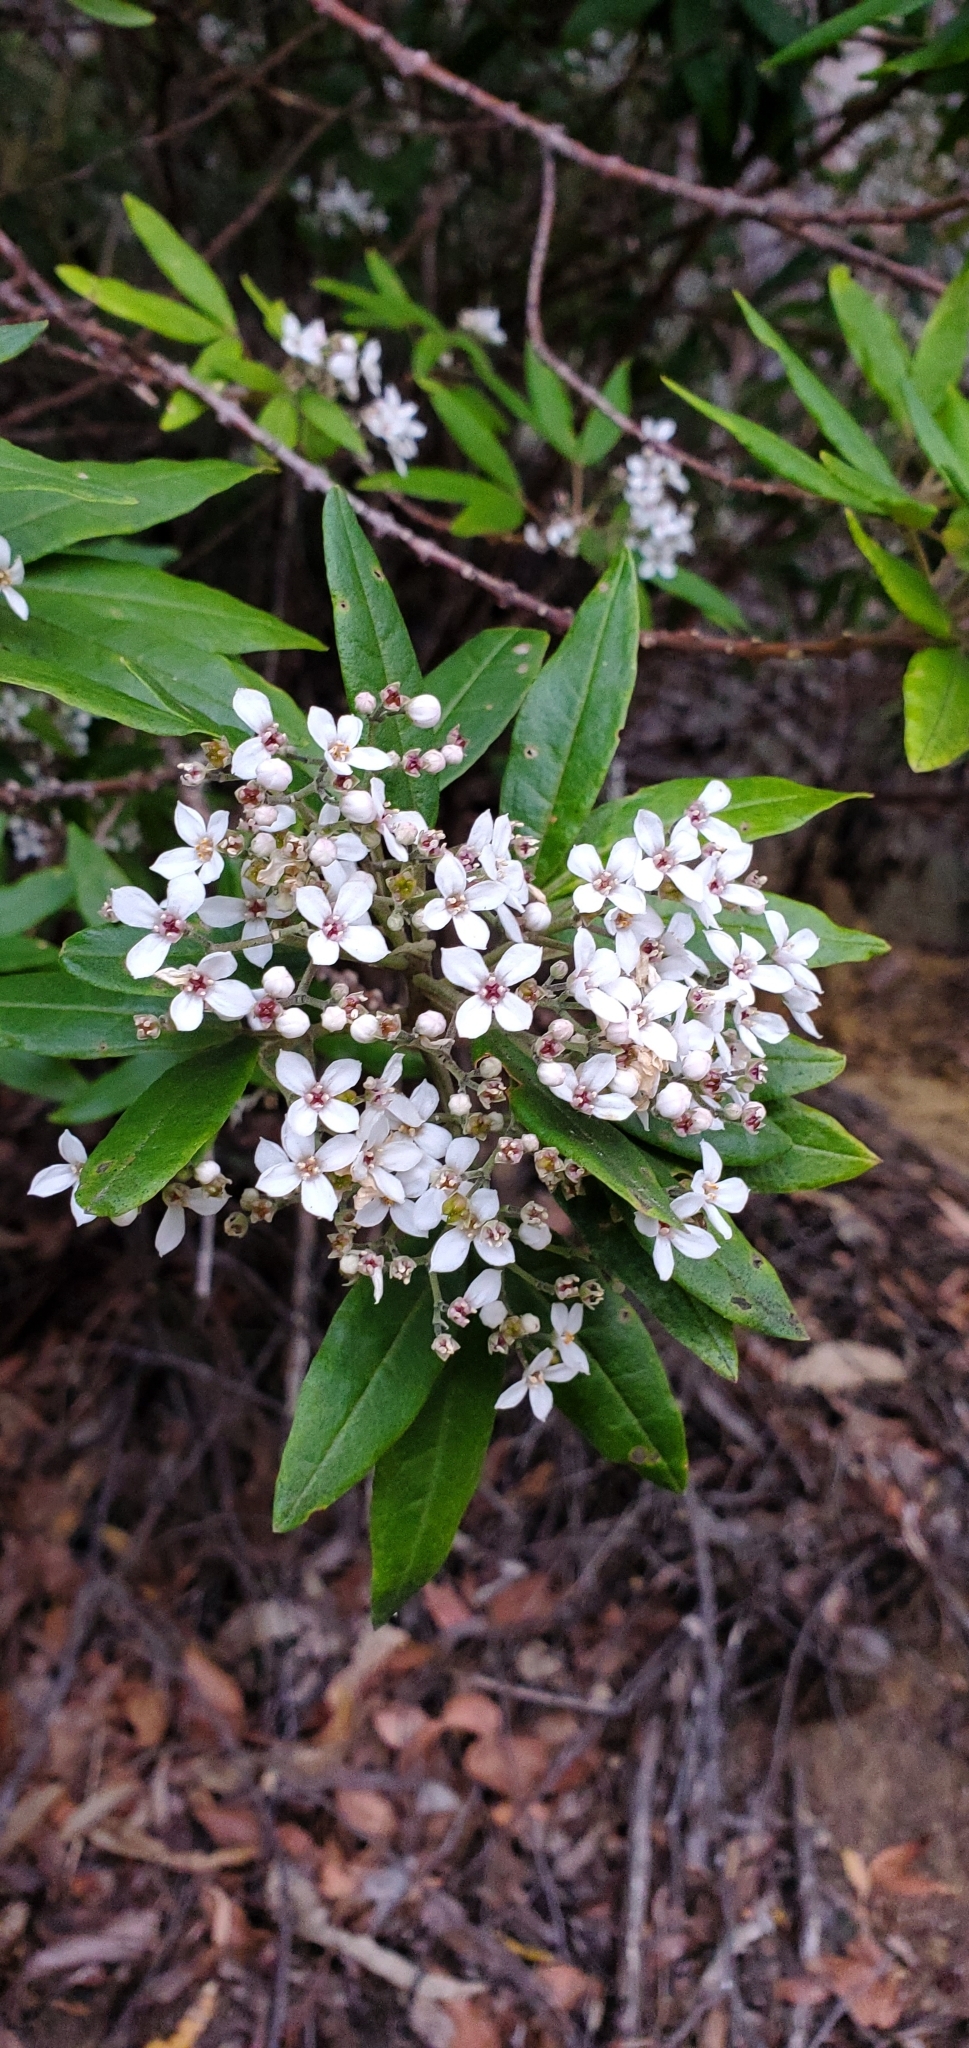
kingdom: Plantae
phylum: Tracheophyta
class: Magnoliopsida
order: Sapindales
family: Rutaceae
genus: Zieria
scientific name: Zieria arborescens
